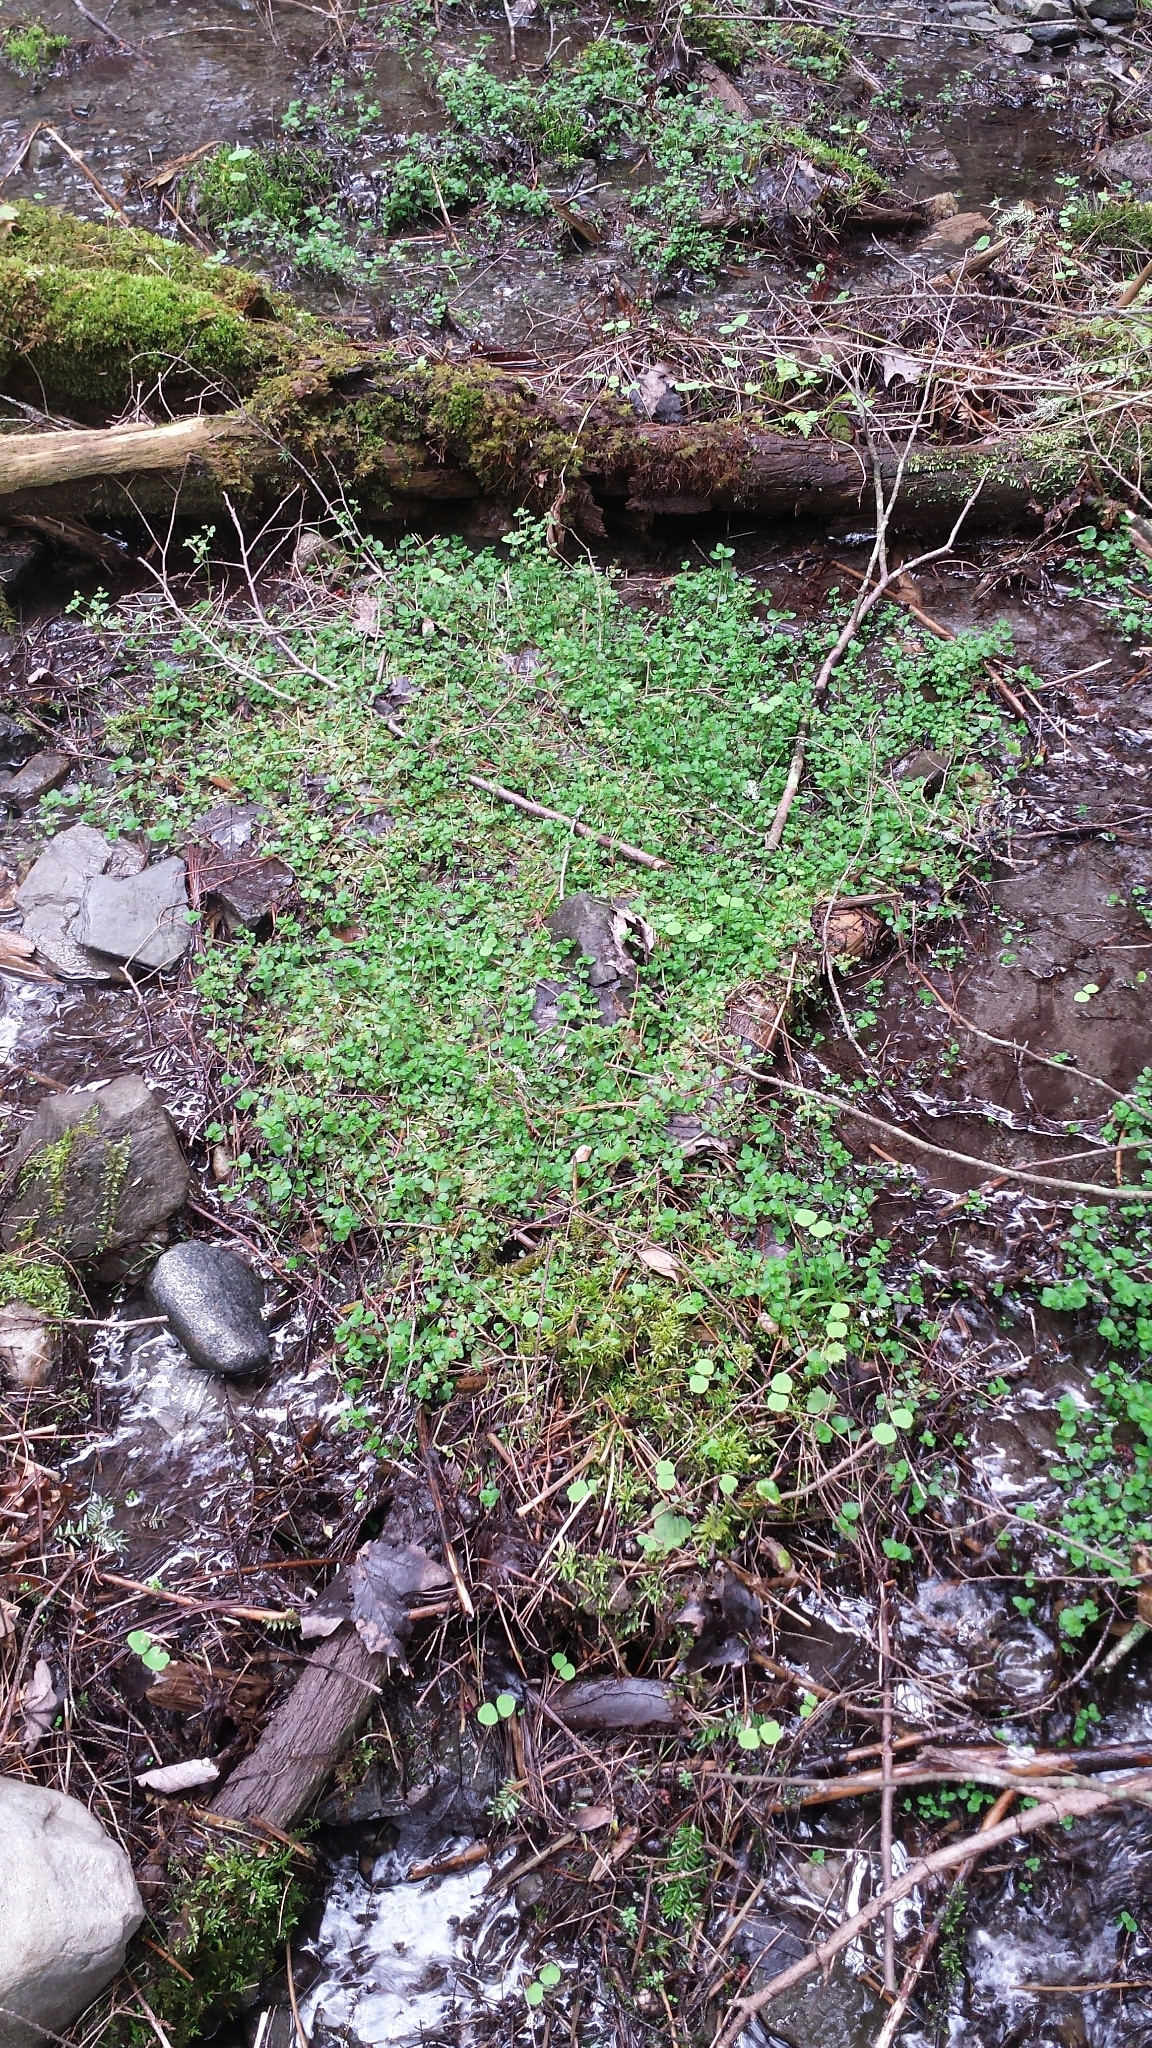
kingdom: Plantae
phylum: Tracheophyta
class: Magnoliopsida
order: Saxifragales
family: Saxifragaceae
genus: Chrysosplenium
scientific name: Chrysosplenium americanum
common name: American golden-saxifrage
